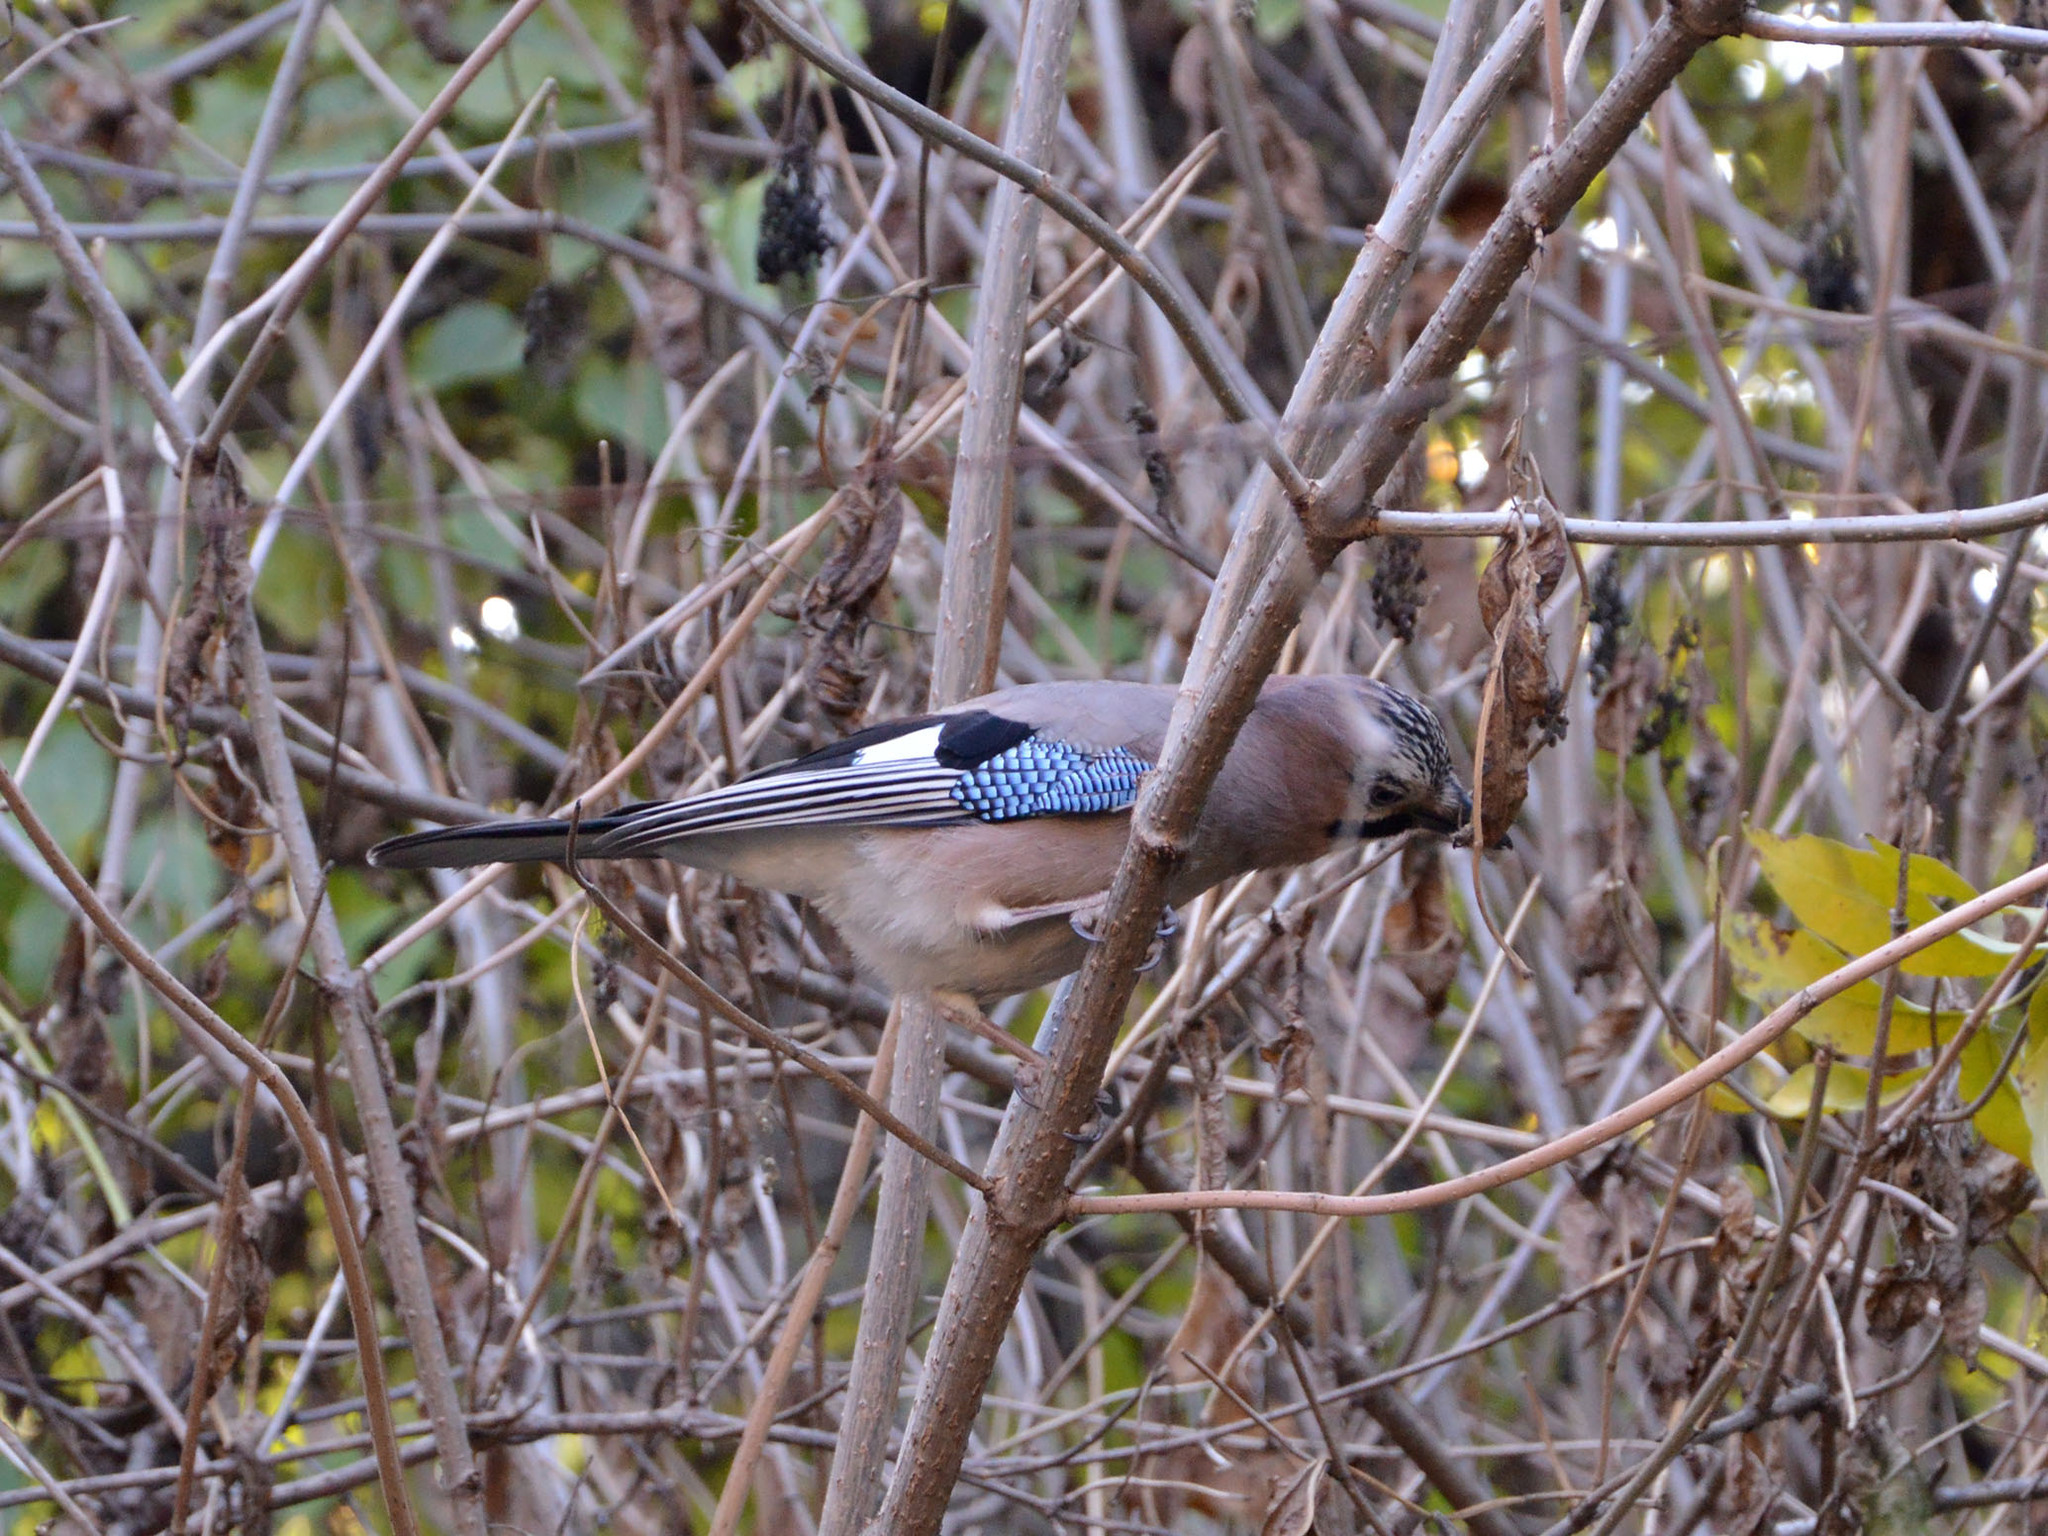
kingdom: Animalia
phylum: Chordata
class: Aves
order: Passeriformes
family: Corvidae
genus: Garrulus
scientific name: Garrulus glandarius
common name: Eurasian jay
